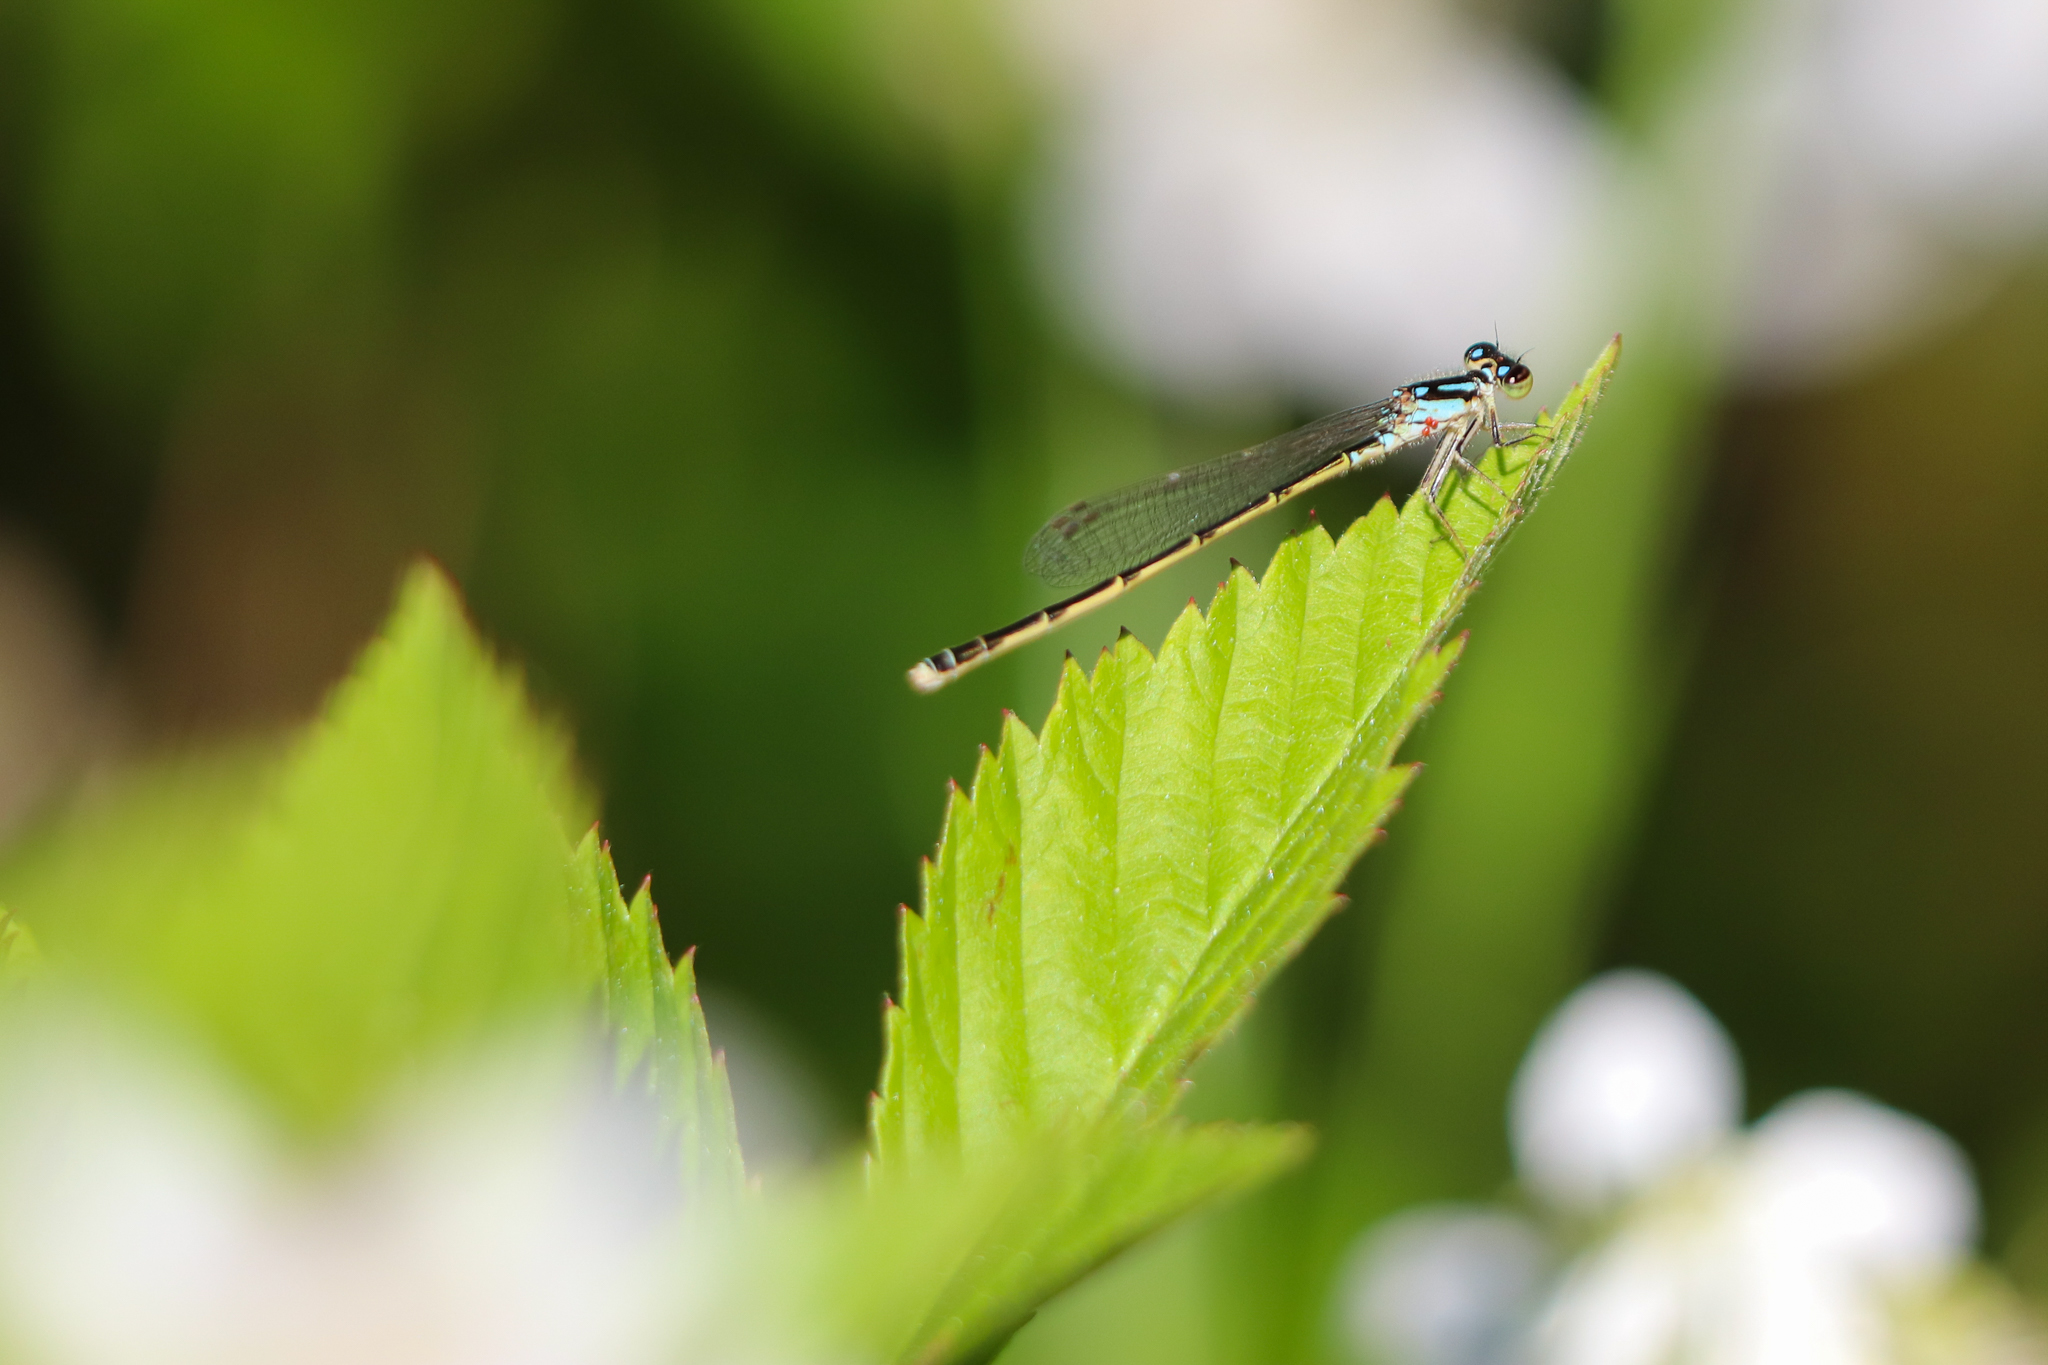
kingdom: Animalia
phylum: Arthropoda
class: Insecta
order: Odonata
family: Coenagrionidae
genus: Ischnura
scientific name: Ischnura posita
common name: Fragile forktail
